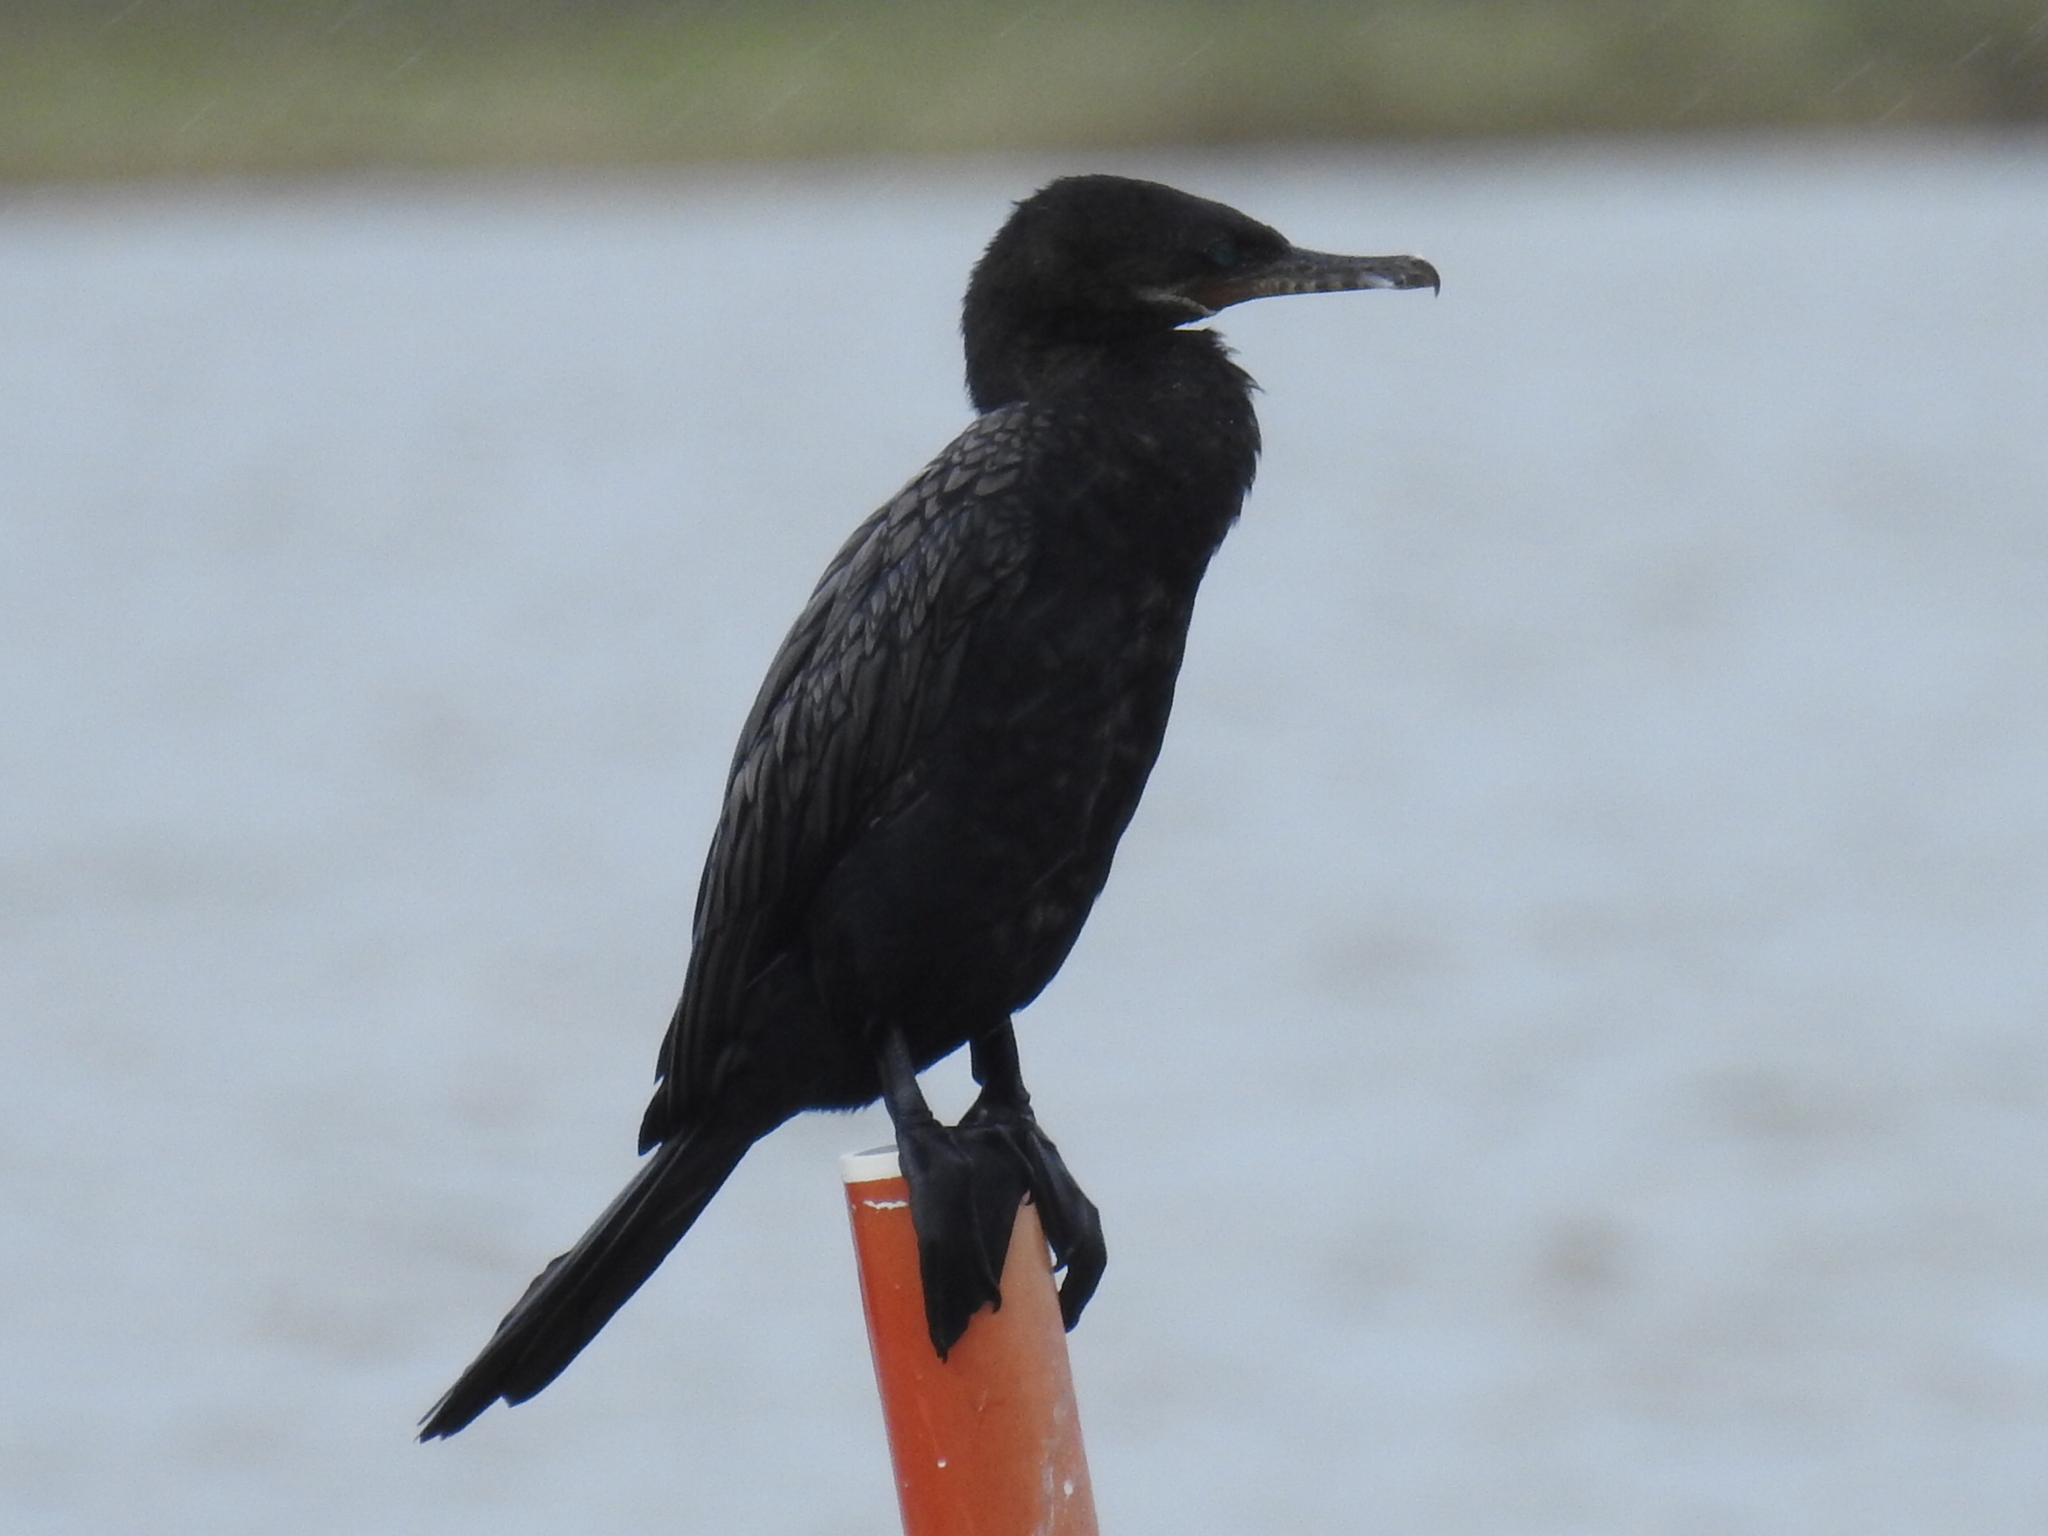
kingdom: Animalia
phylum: Chordata
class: Aves
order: Suliformes
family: Phalacrocoracidae
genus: Phalacrocorax
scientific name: Phalacrocorax brasilianus
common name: Neotropic cormorant
